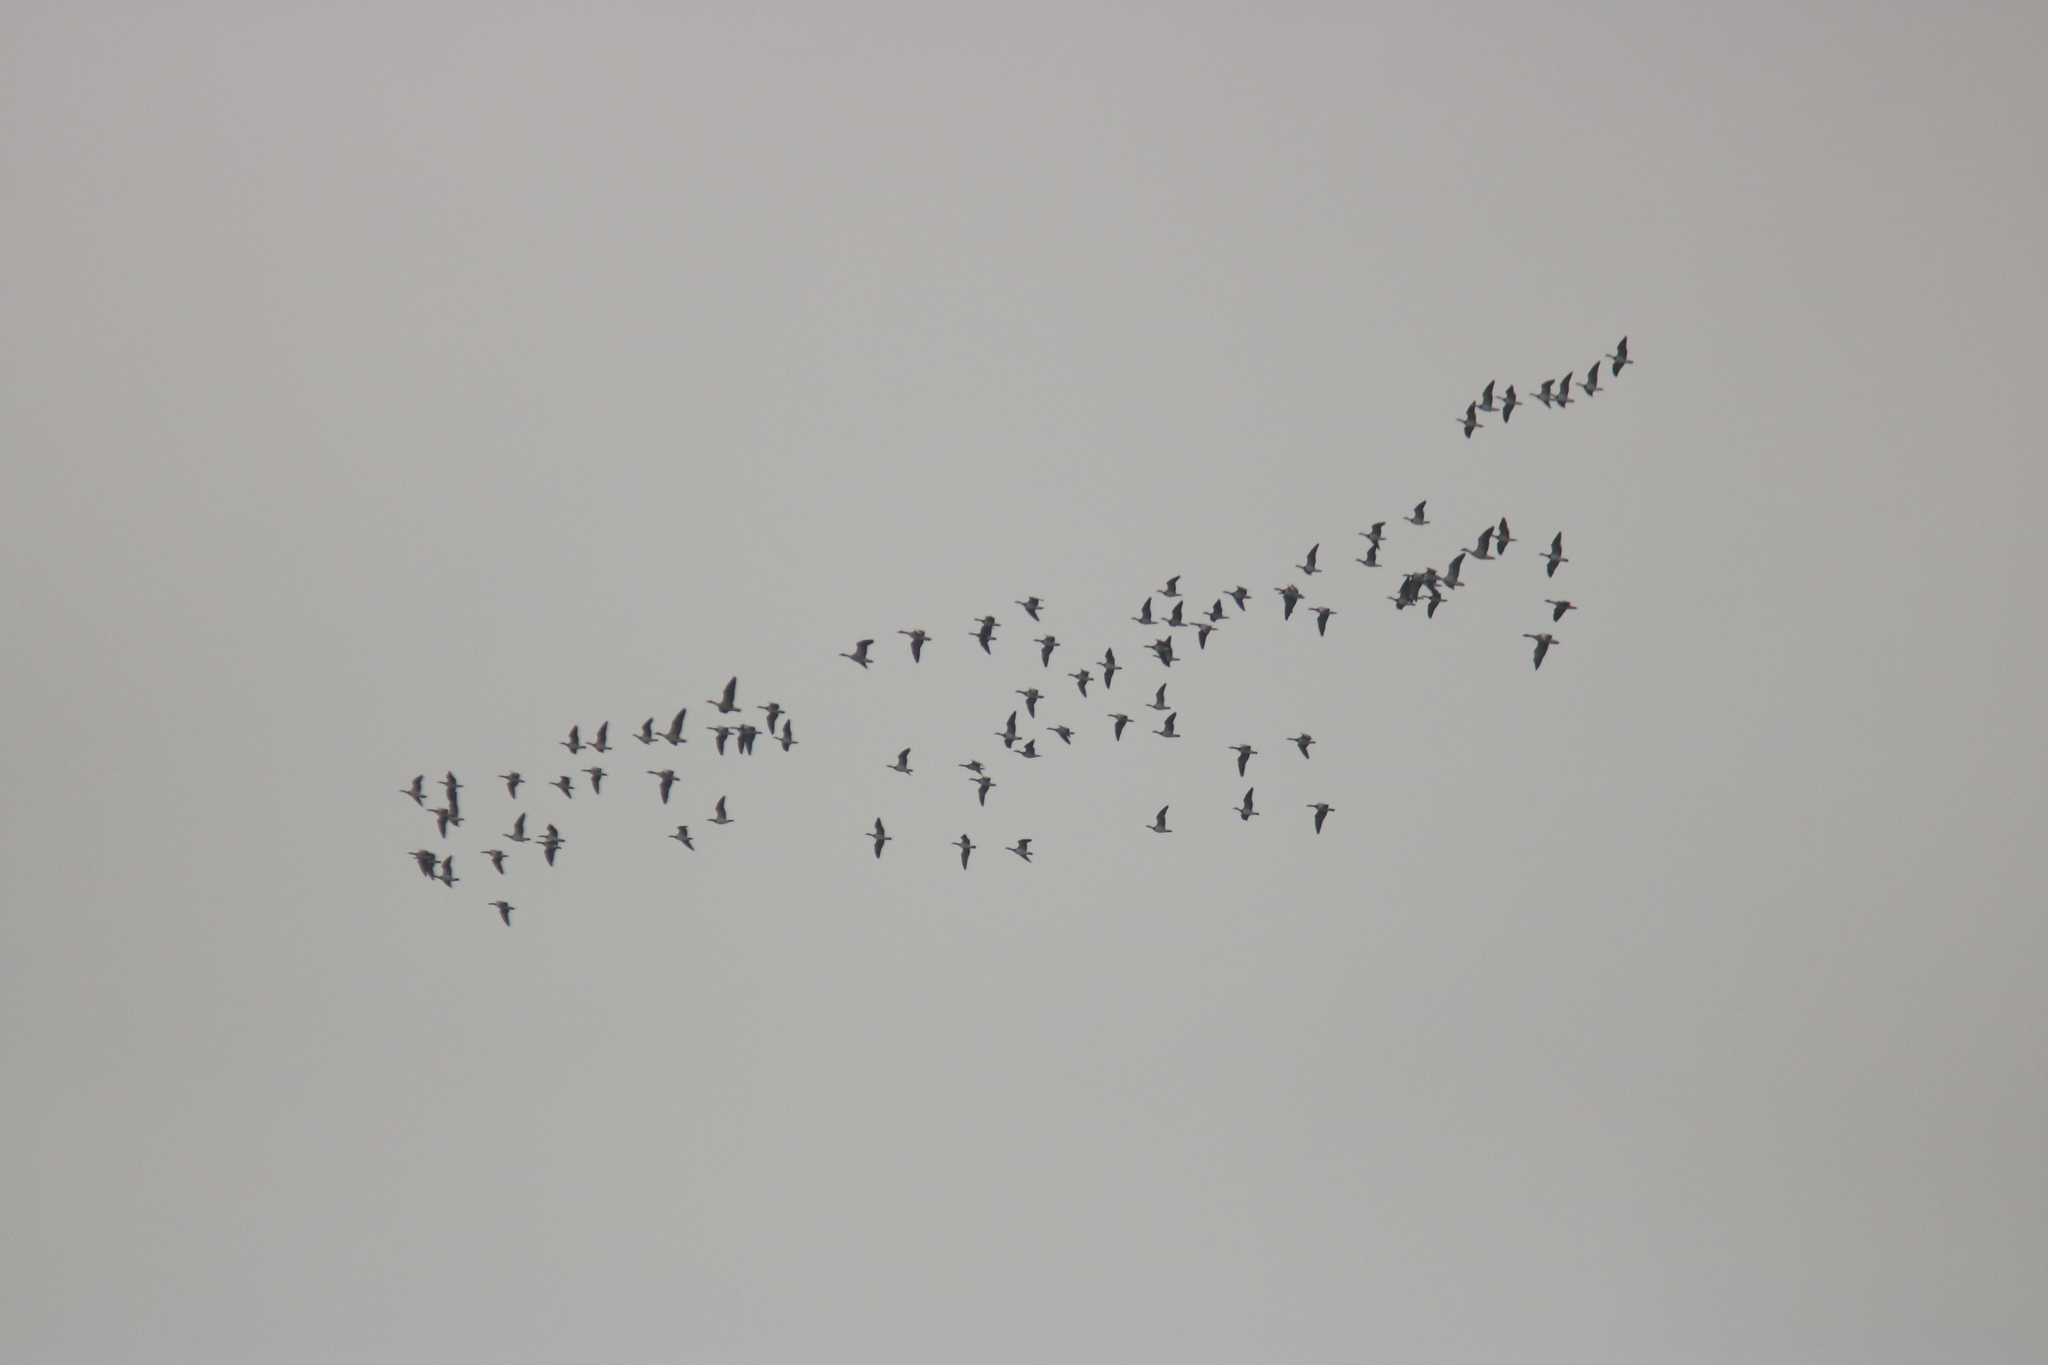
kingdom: Animalia
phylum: Chordata
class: Aves
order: Anseriformes
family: Anatidae
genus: Branta
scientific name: Branta leucopsis
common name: Barnacle goose
